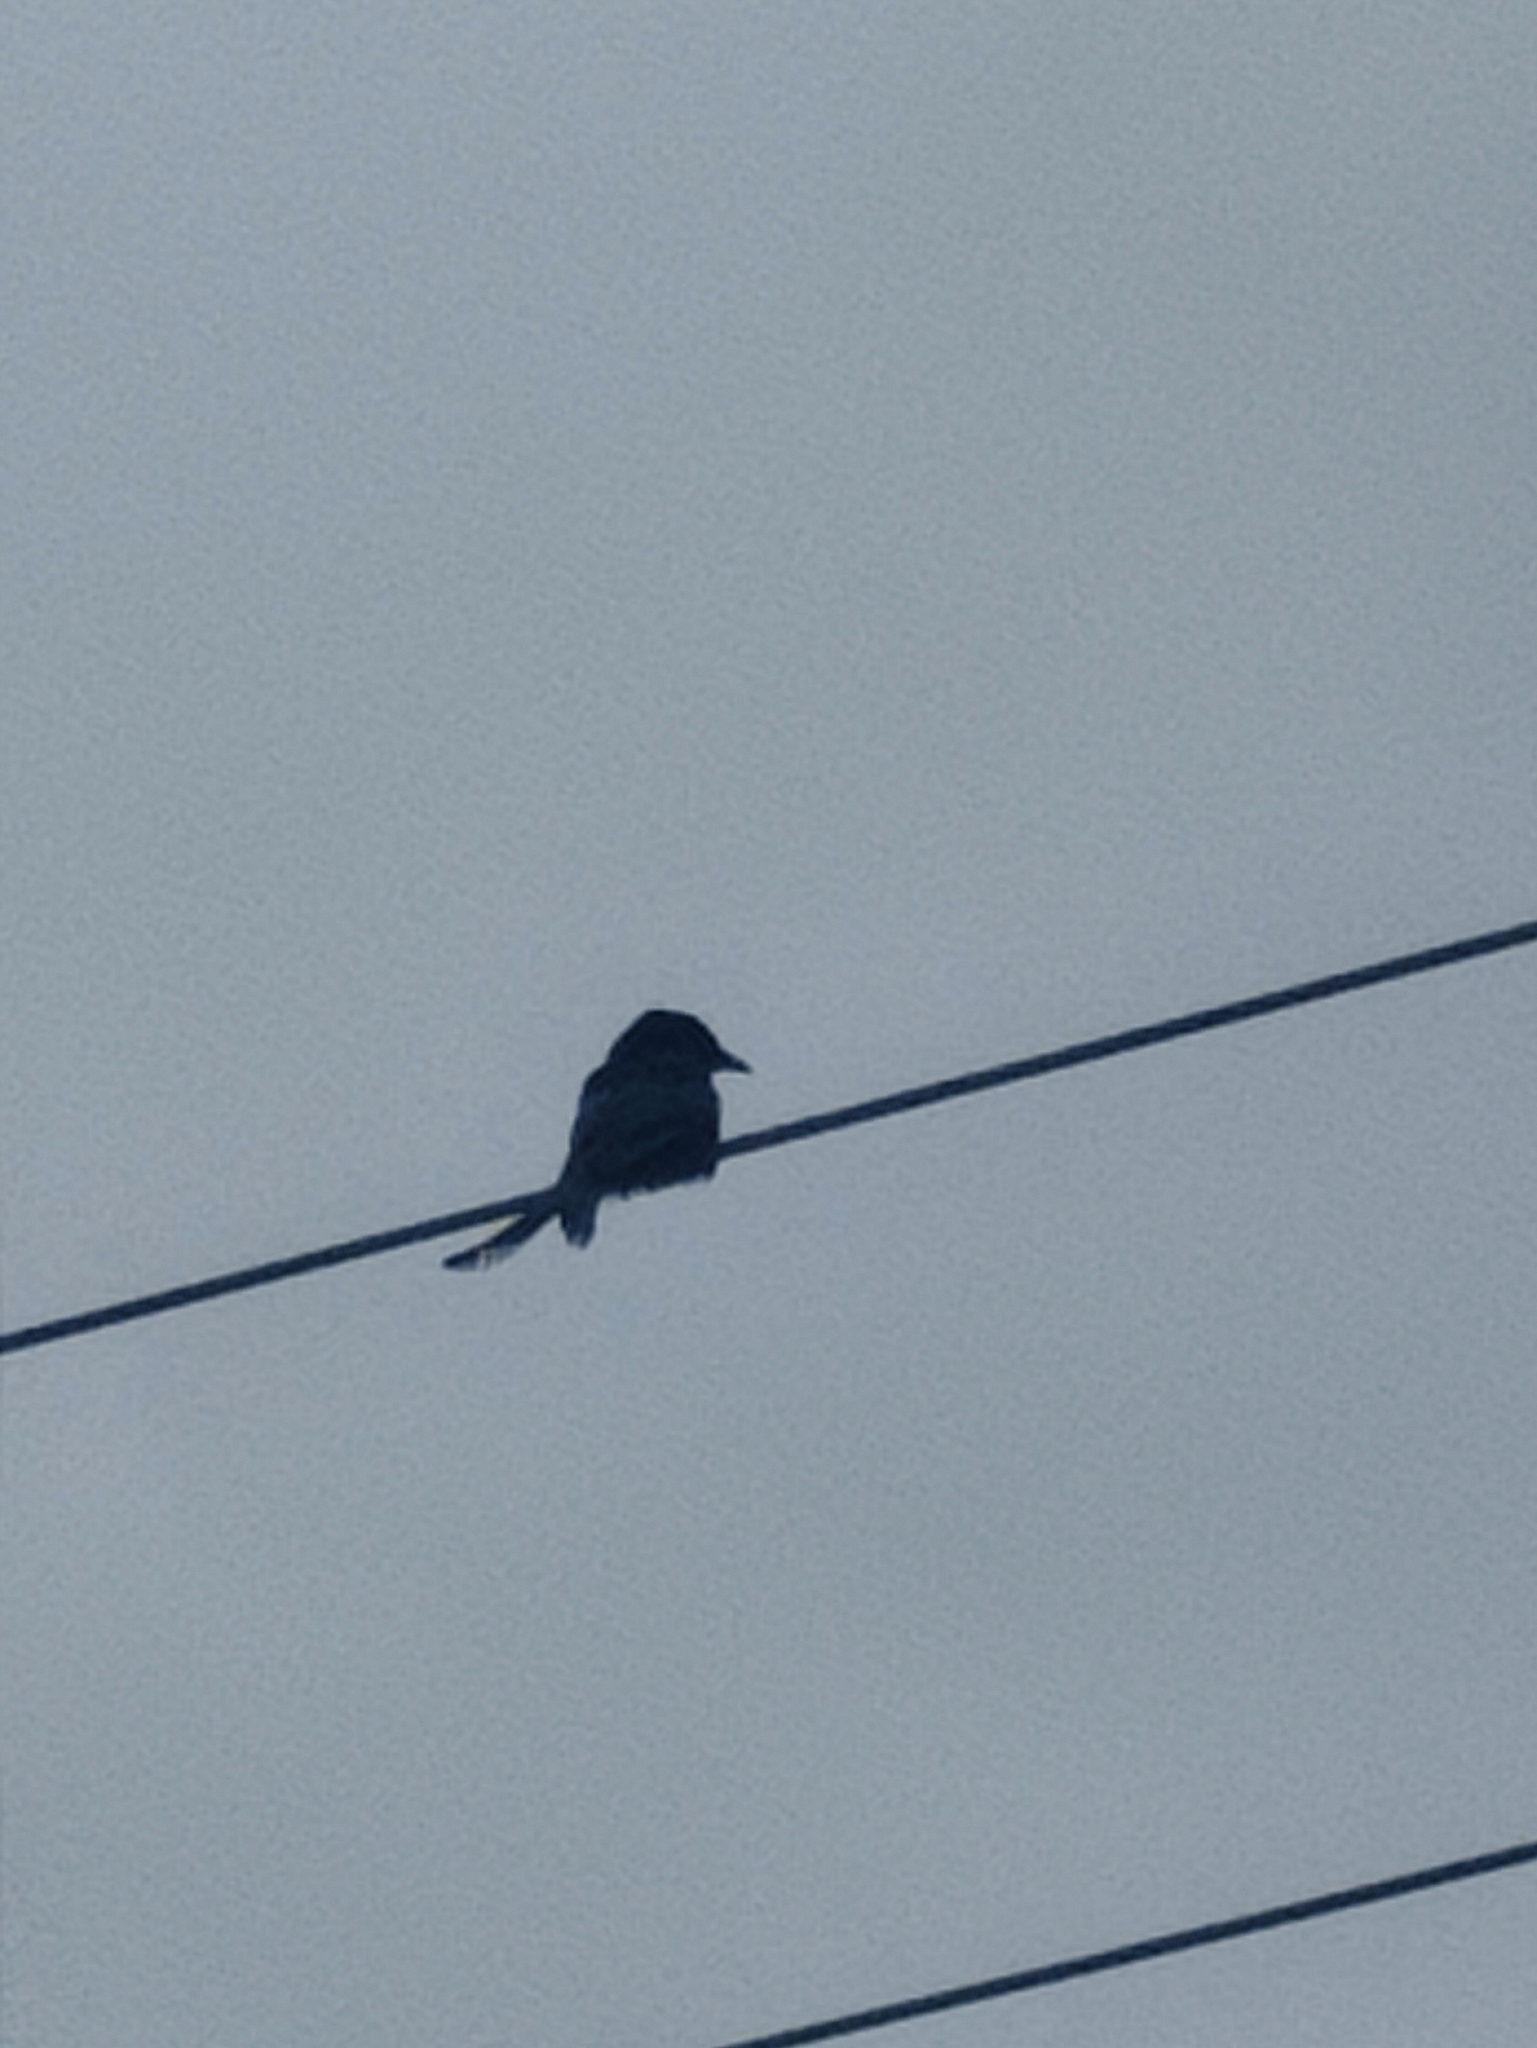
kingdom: Animalia
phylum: Chordata
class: Aves
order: Passeriformes
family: Dicruridae
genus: Dicrurus
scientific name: Dicrurus macrocercus
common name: Black drongo
